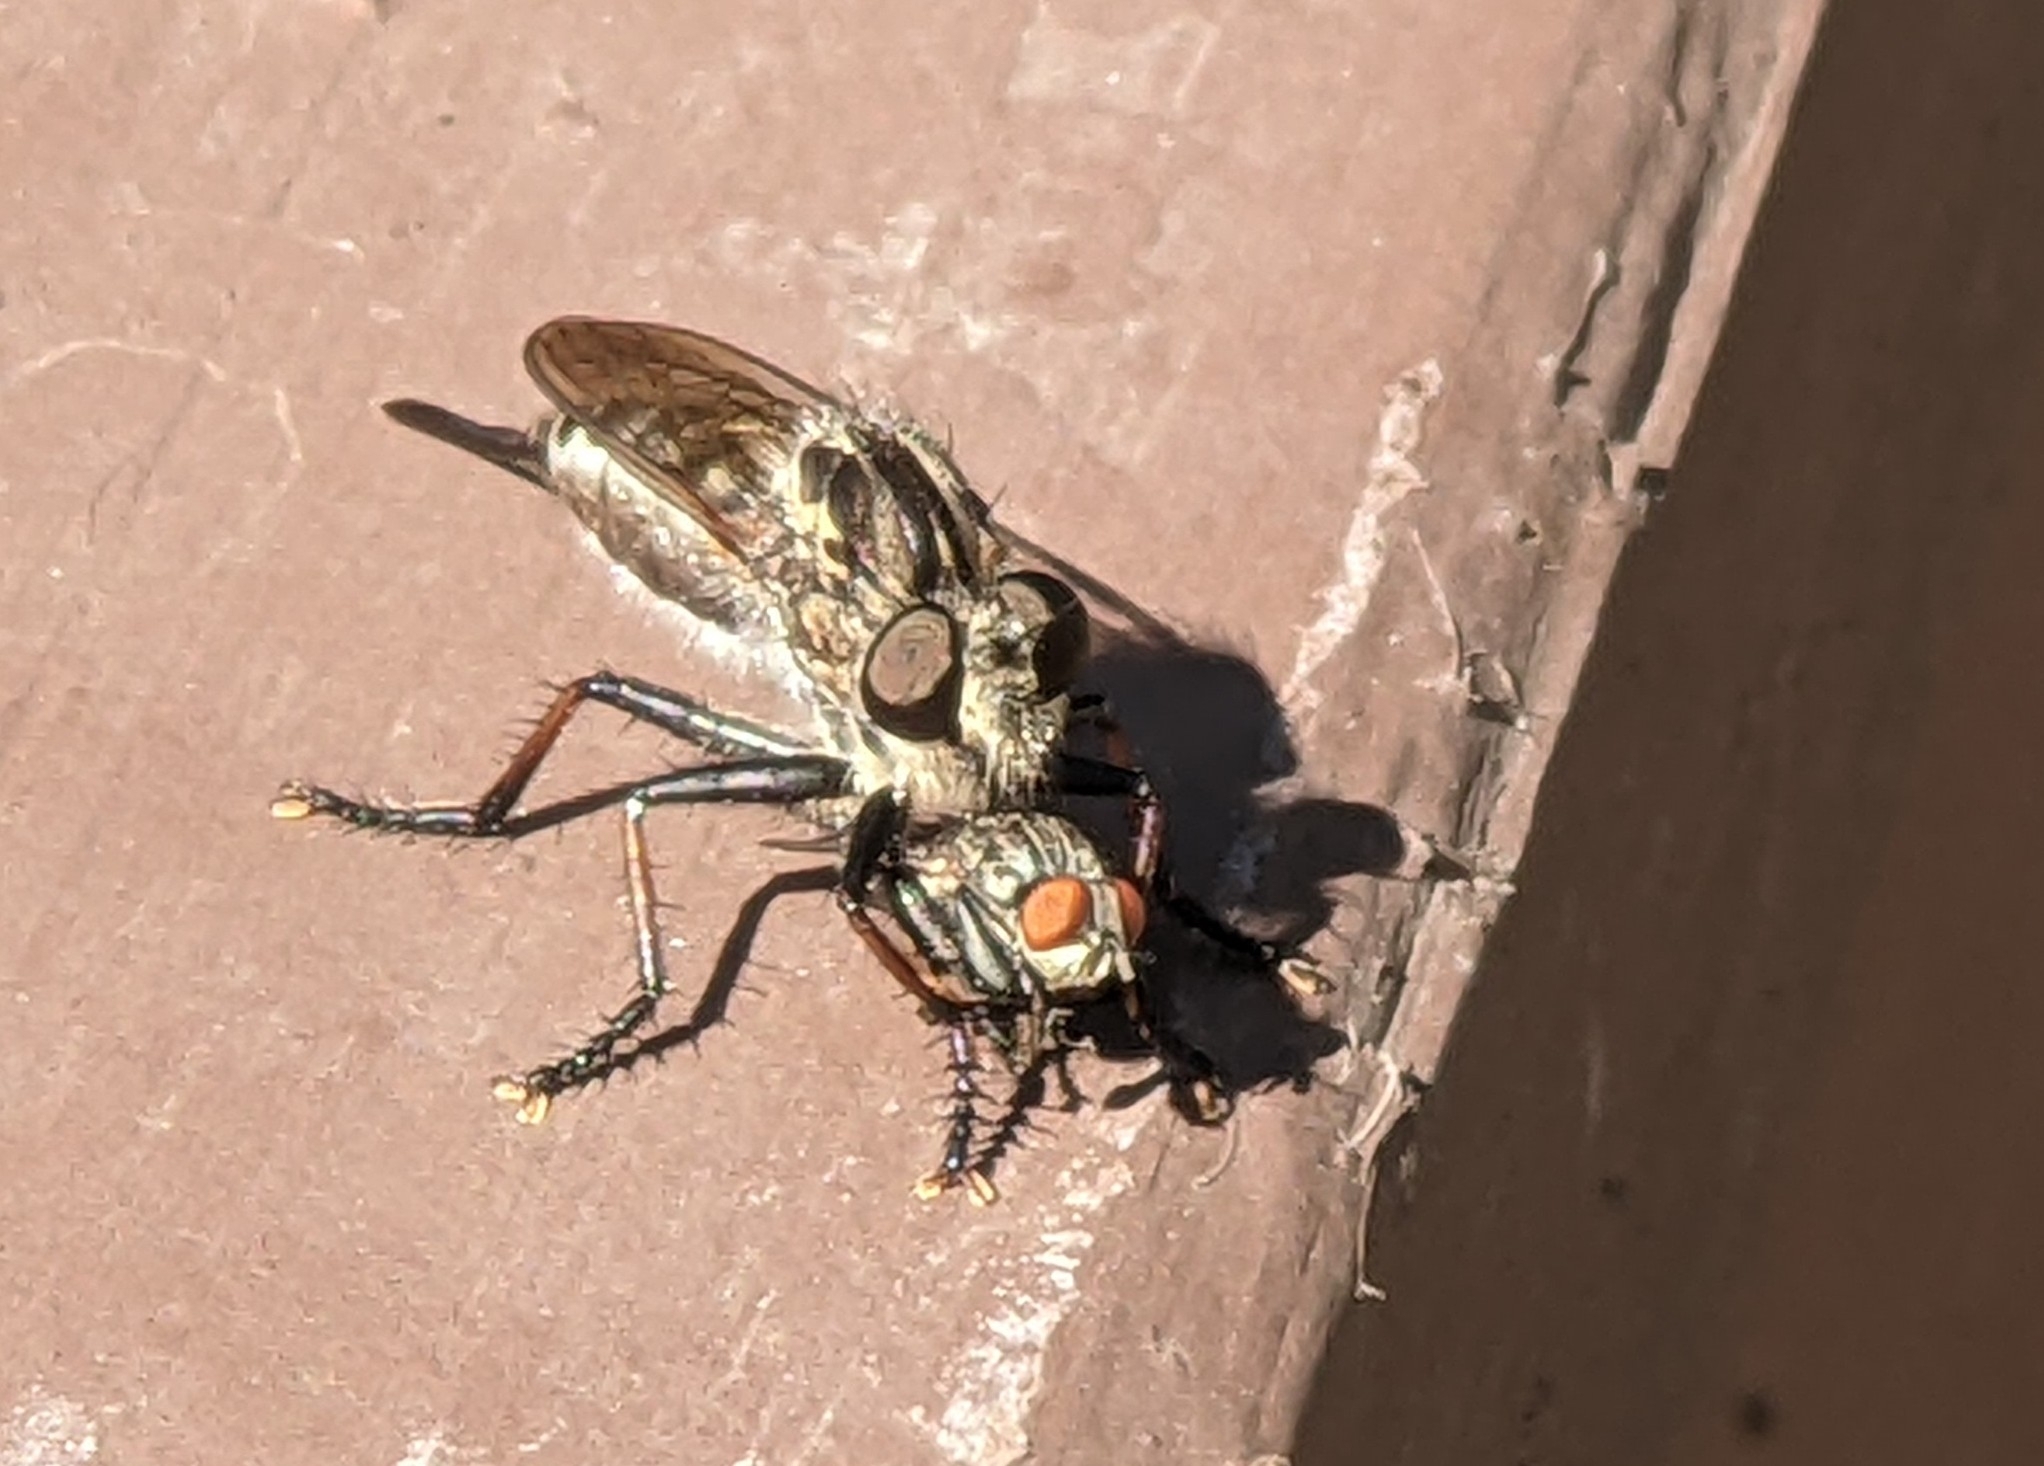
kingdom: Animalia
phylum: Arthropoda
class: Insecta
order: Diptera
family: Asilidae
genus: Efferia
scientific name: Efferia aestuans
